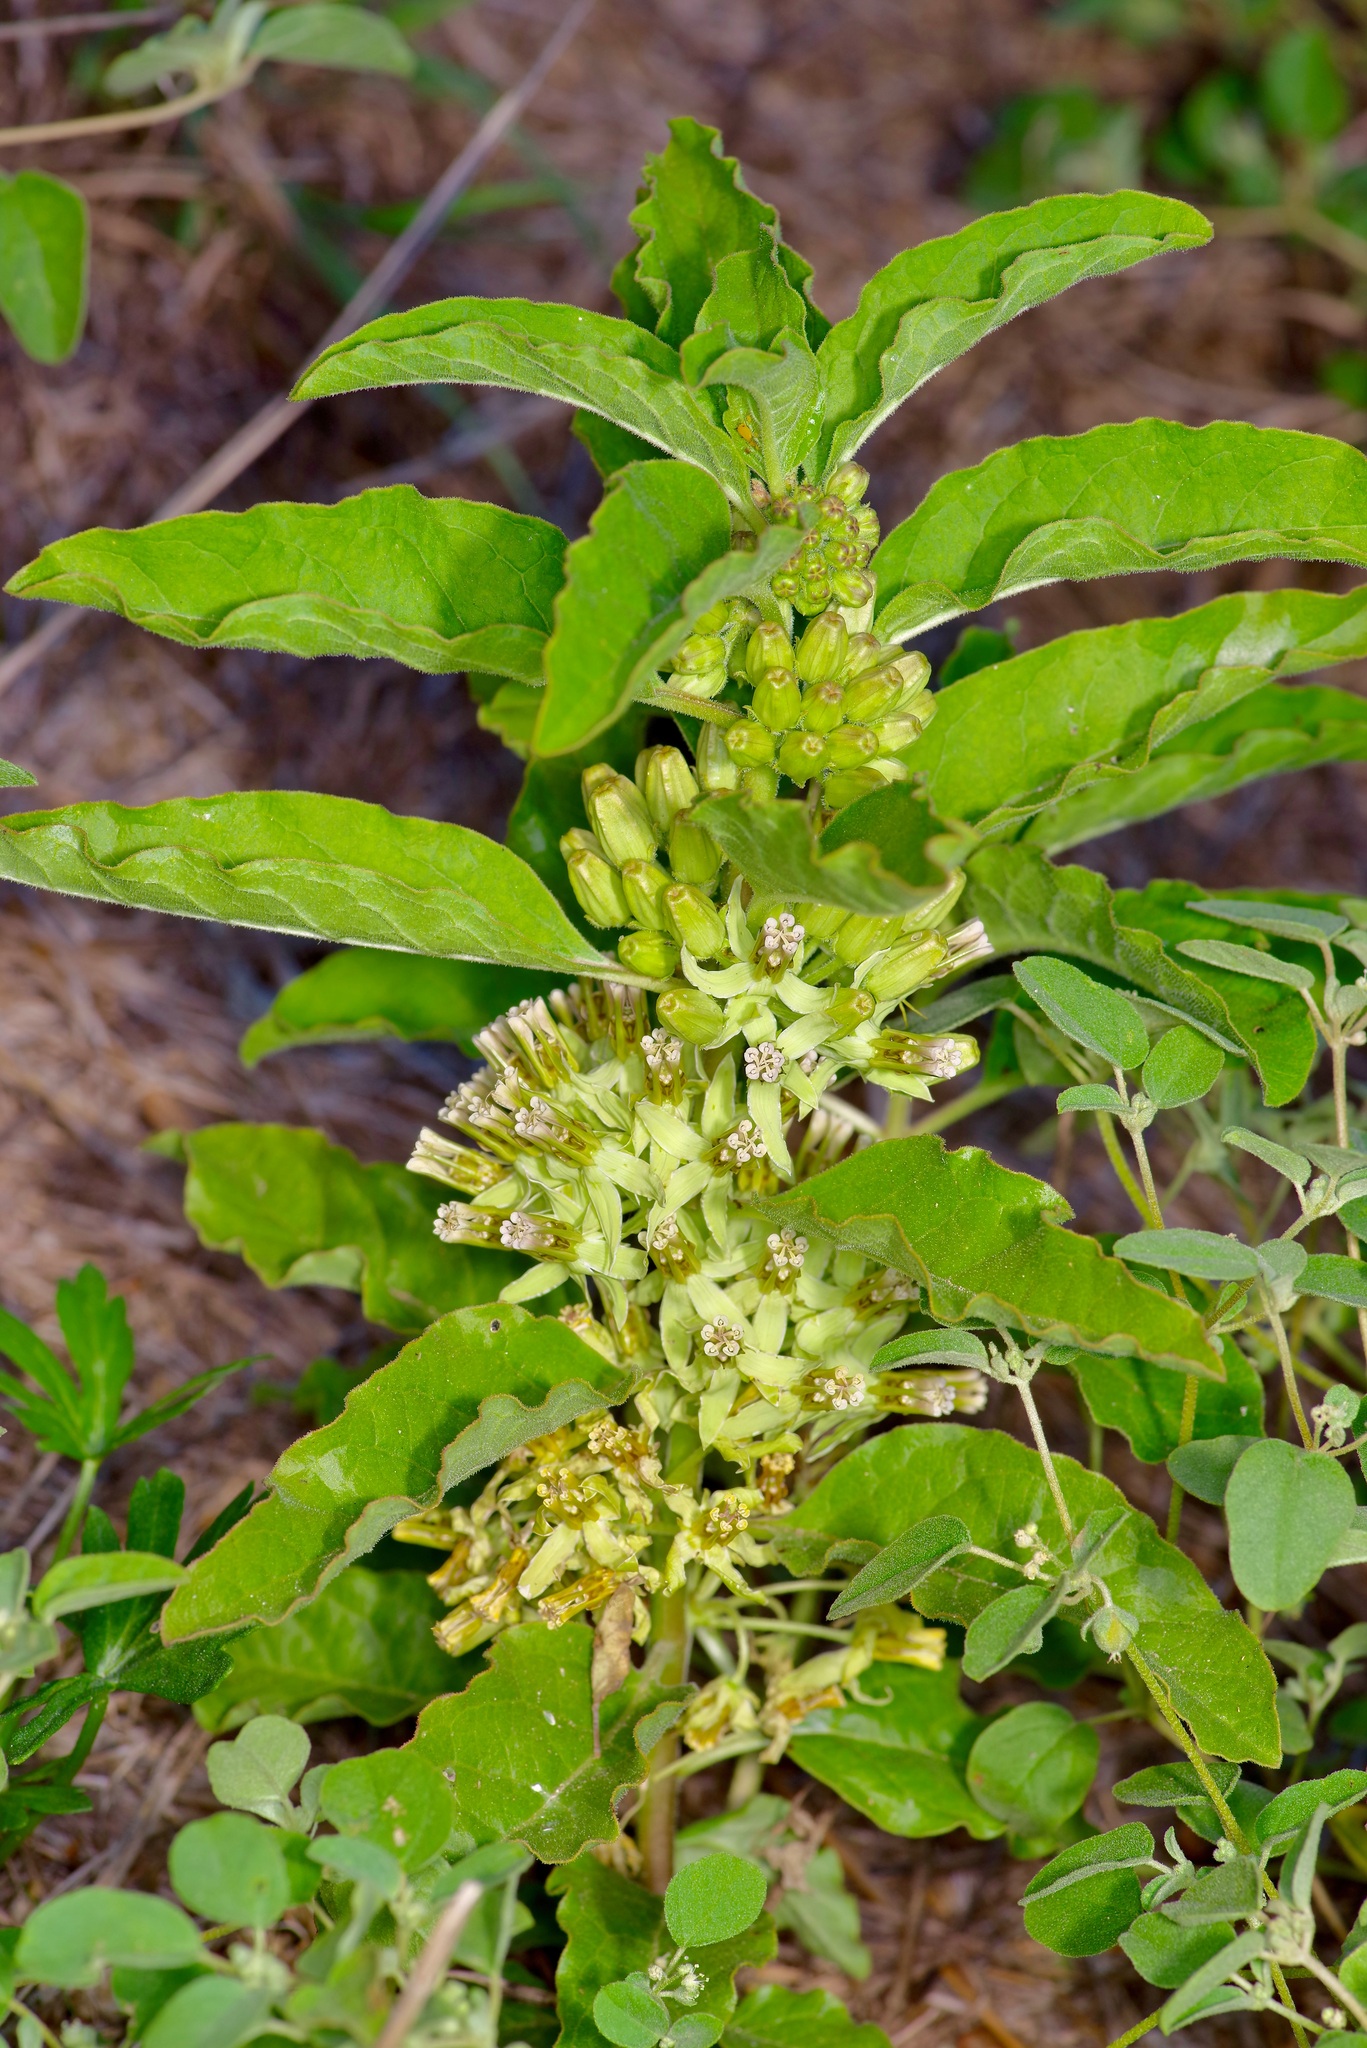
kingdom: Plantae
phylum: Tracheophyta
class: Magnoliopsida
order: Gentianales
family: Apocynaceae
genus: Asclepias
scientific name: Asclepias oenotheroides
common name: Zizotes milkweed
